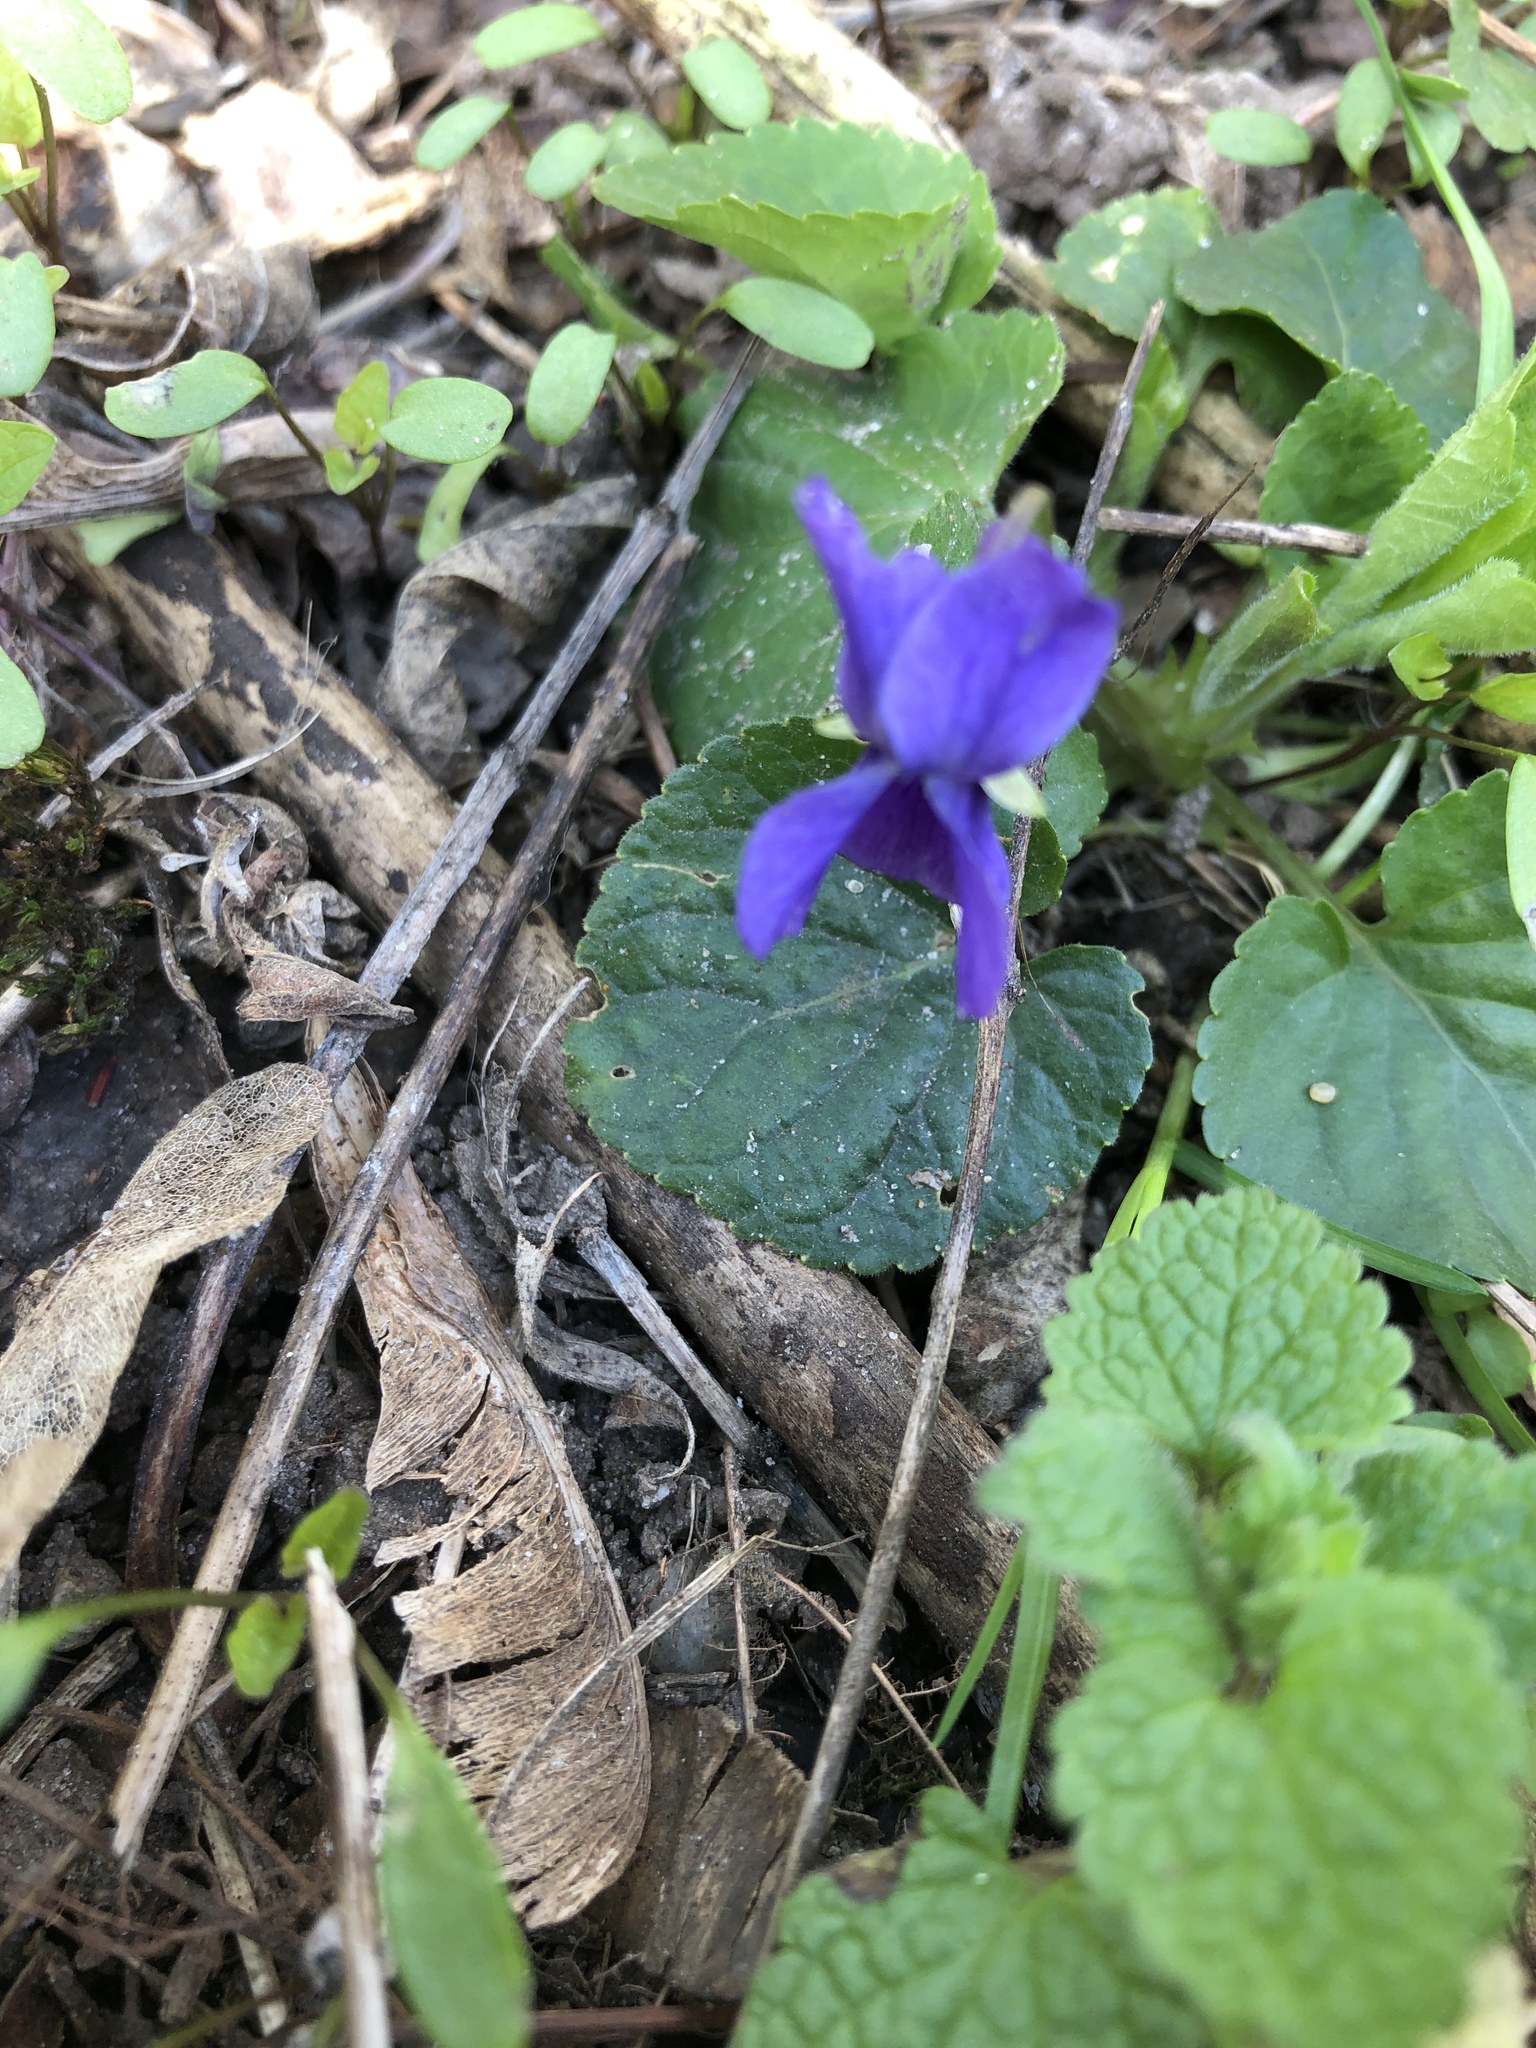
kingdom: Plantae
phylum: Tracheophyta
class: Magnoliopsida
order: Malpighiales
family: Violaceae
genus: Viola
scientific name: Viola odorata
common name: Sweet violet
